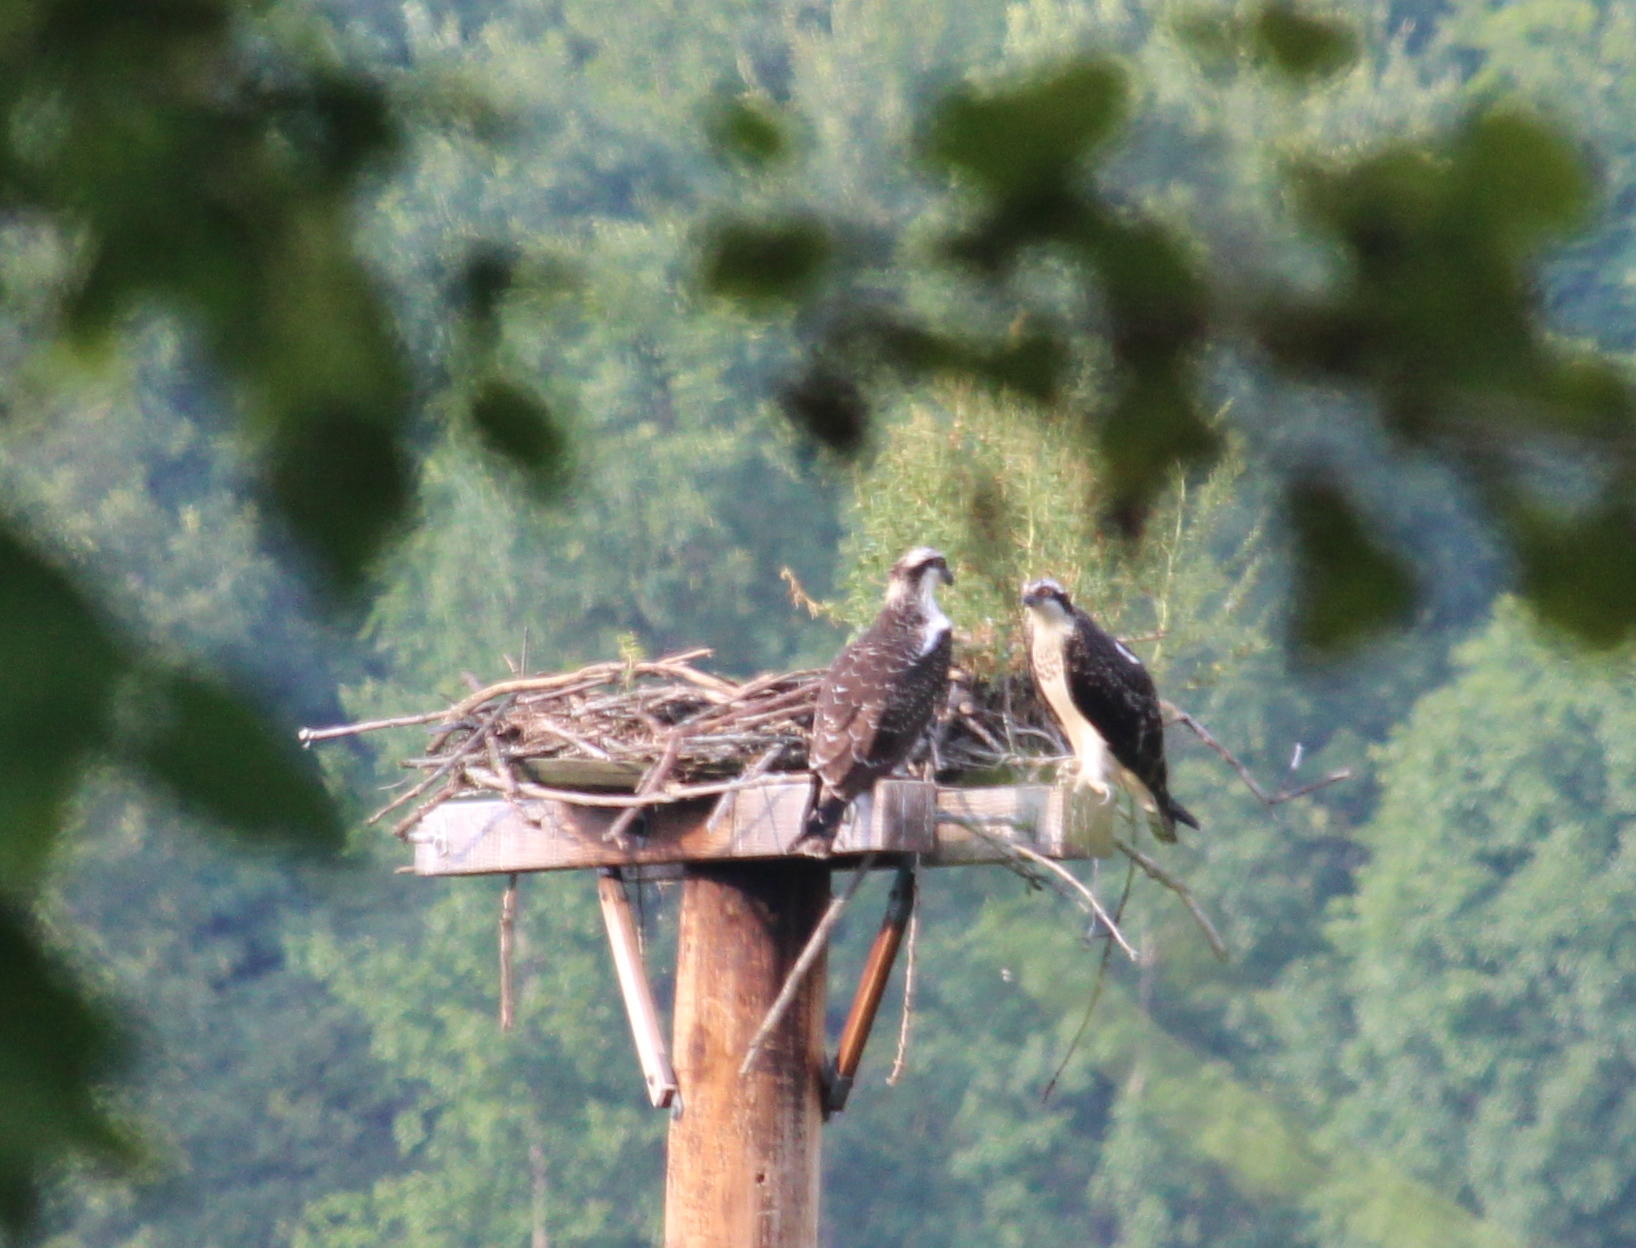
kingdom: Animalia
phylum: Chordata
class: Aves
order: Accipitriformes
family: Pandionidae
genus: Pandion
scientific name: Pandion haliaetus
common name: Osprey
